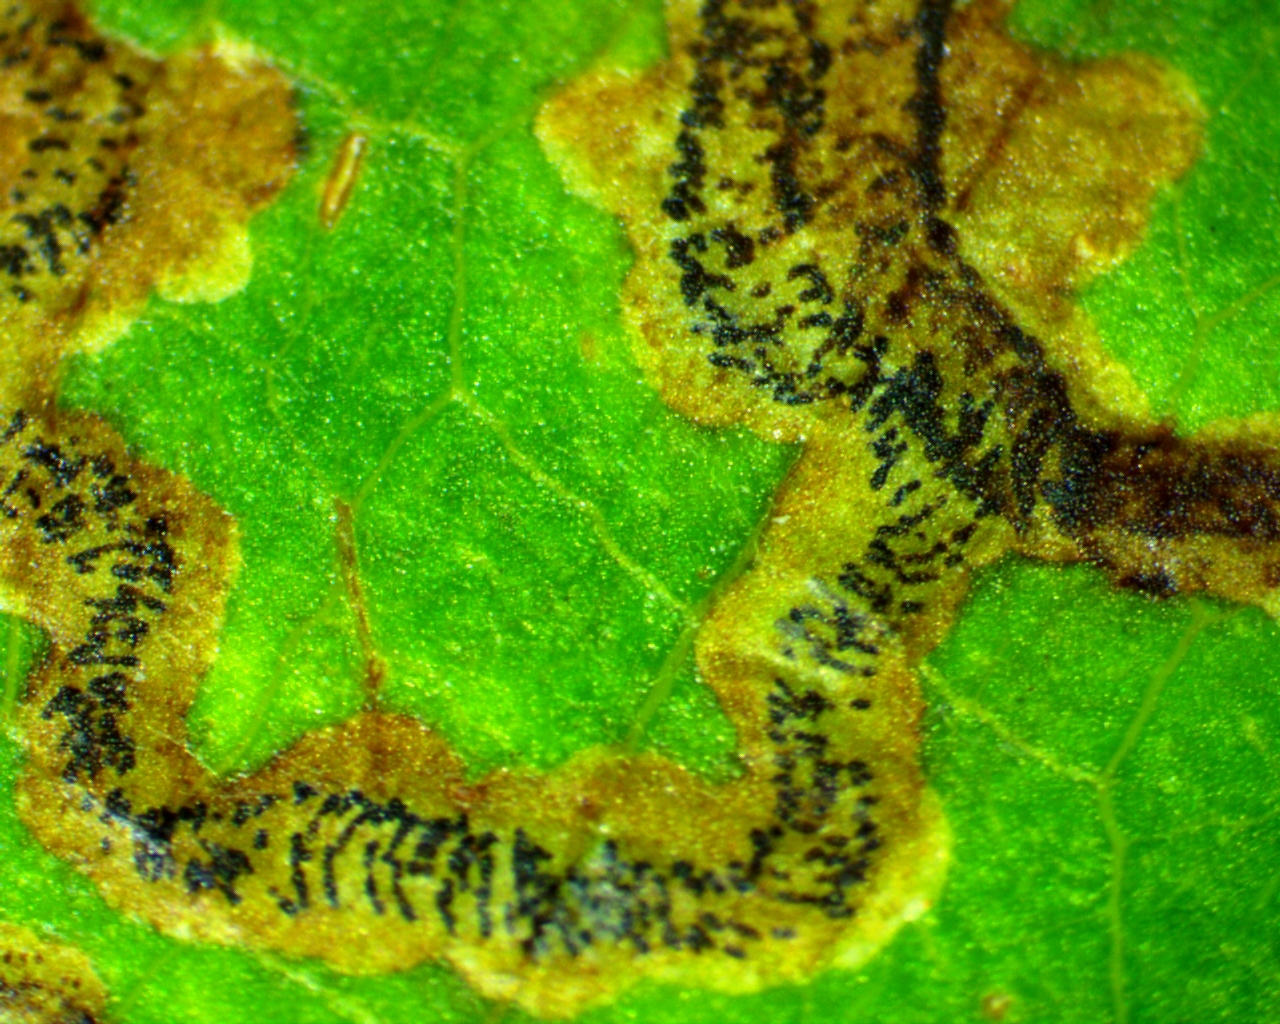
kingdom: Animalia
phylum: Arthropoda
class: Insecta
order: Lepidoptera
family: Gracillariidae
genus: Phyllocnistis
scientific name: Phyllocnistis vitifoliella
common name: Grape leaf-miner moth
